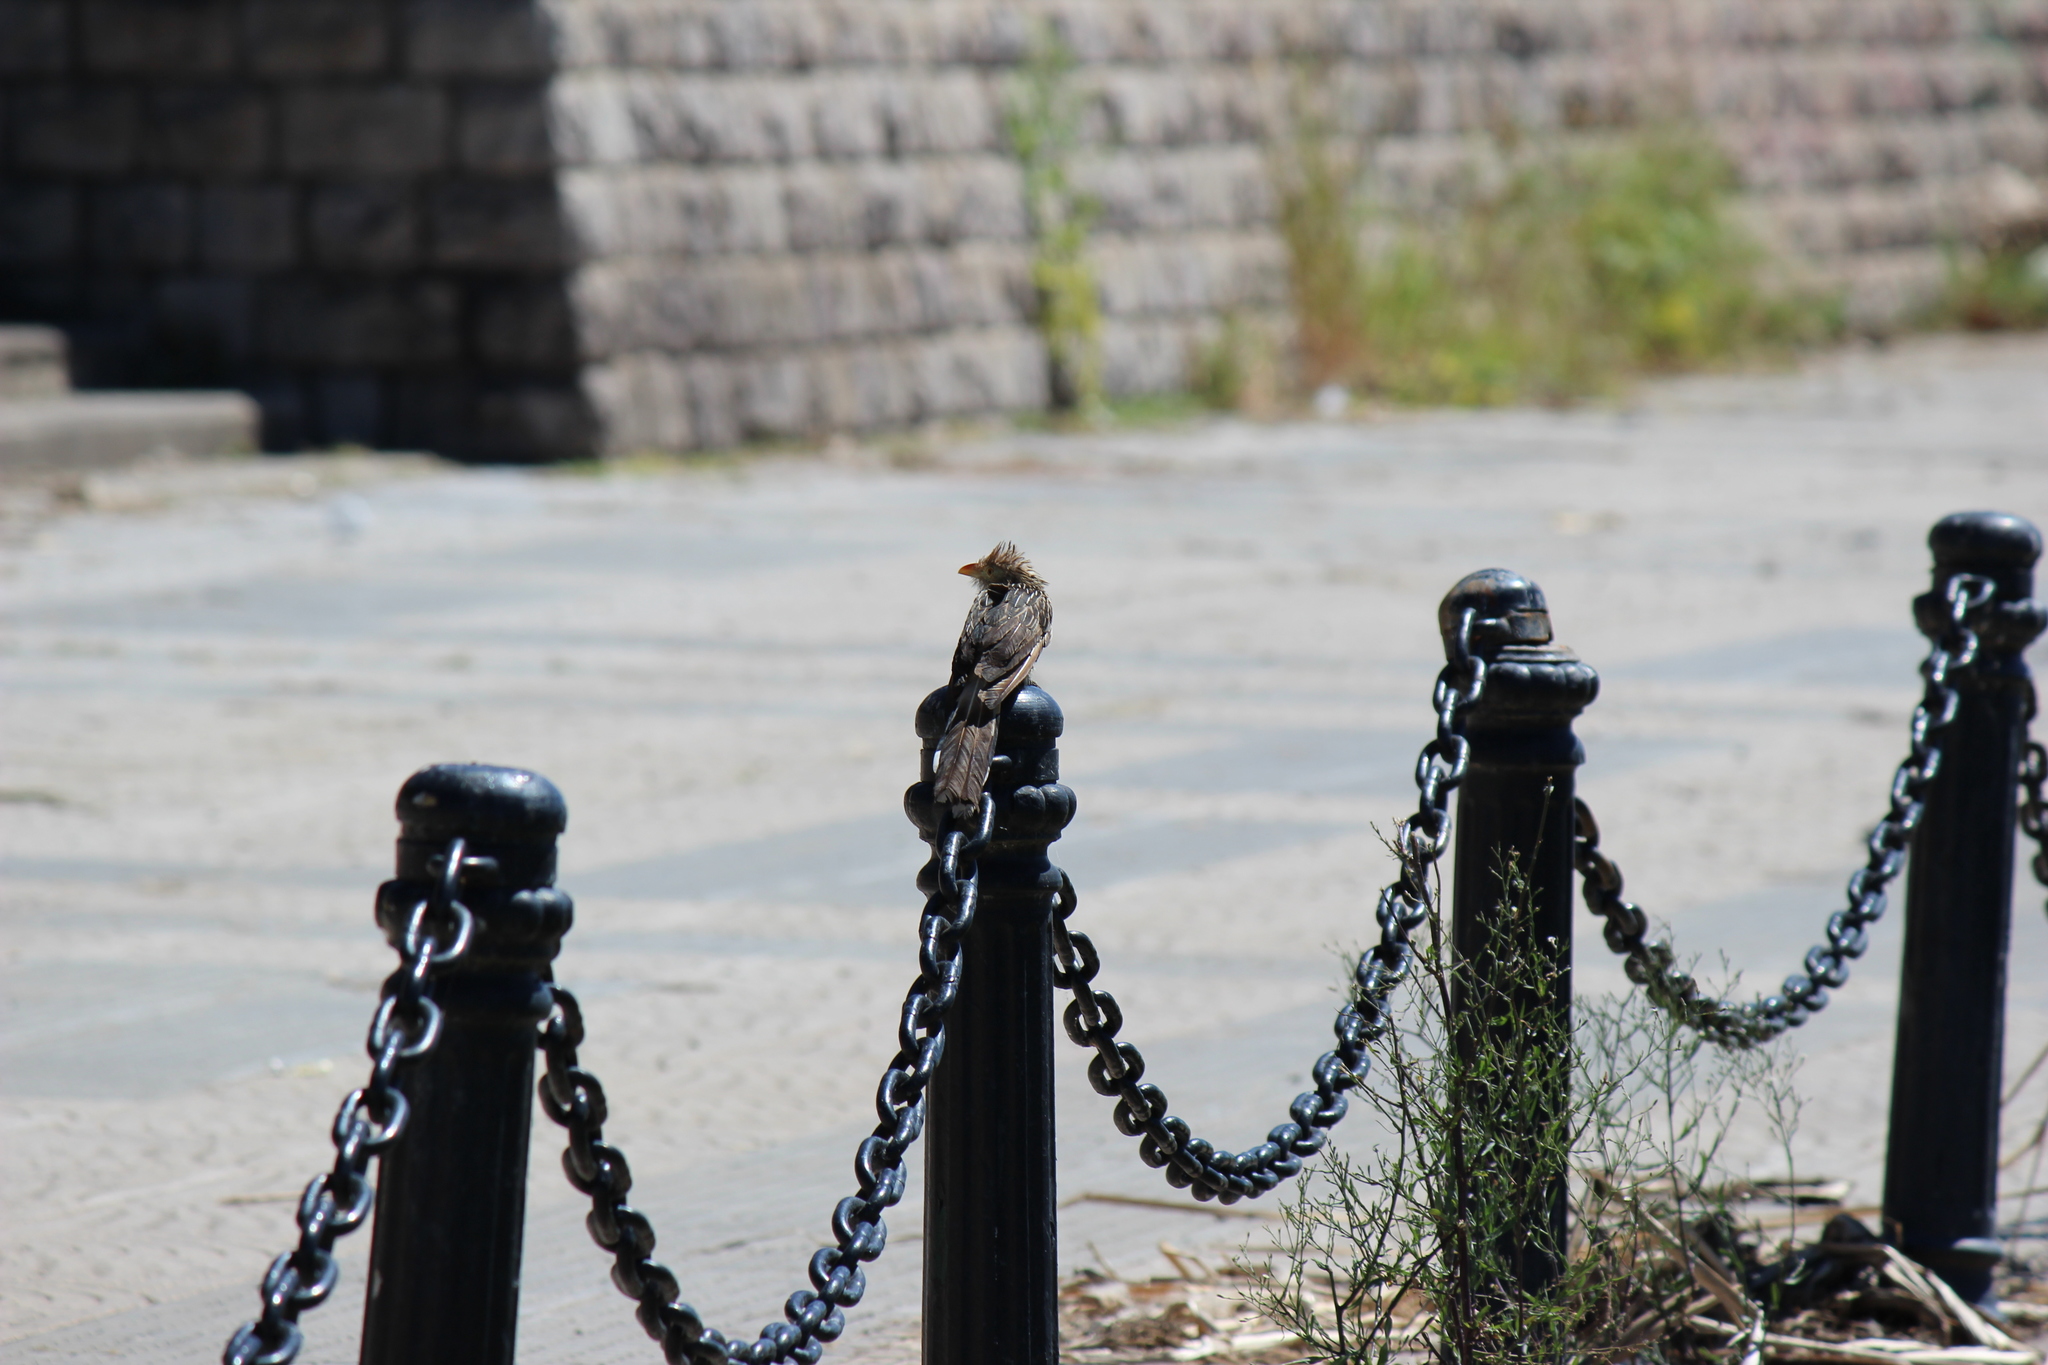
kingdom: Animalia
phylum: Chordata
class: Aves
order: Cuculiformes
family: Cuculidae
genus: Guira
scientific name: Guira guira
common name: Guira cuckoo
